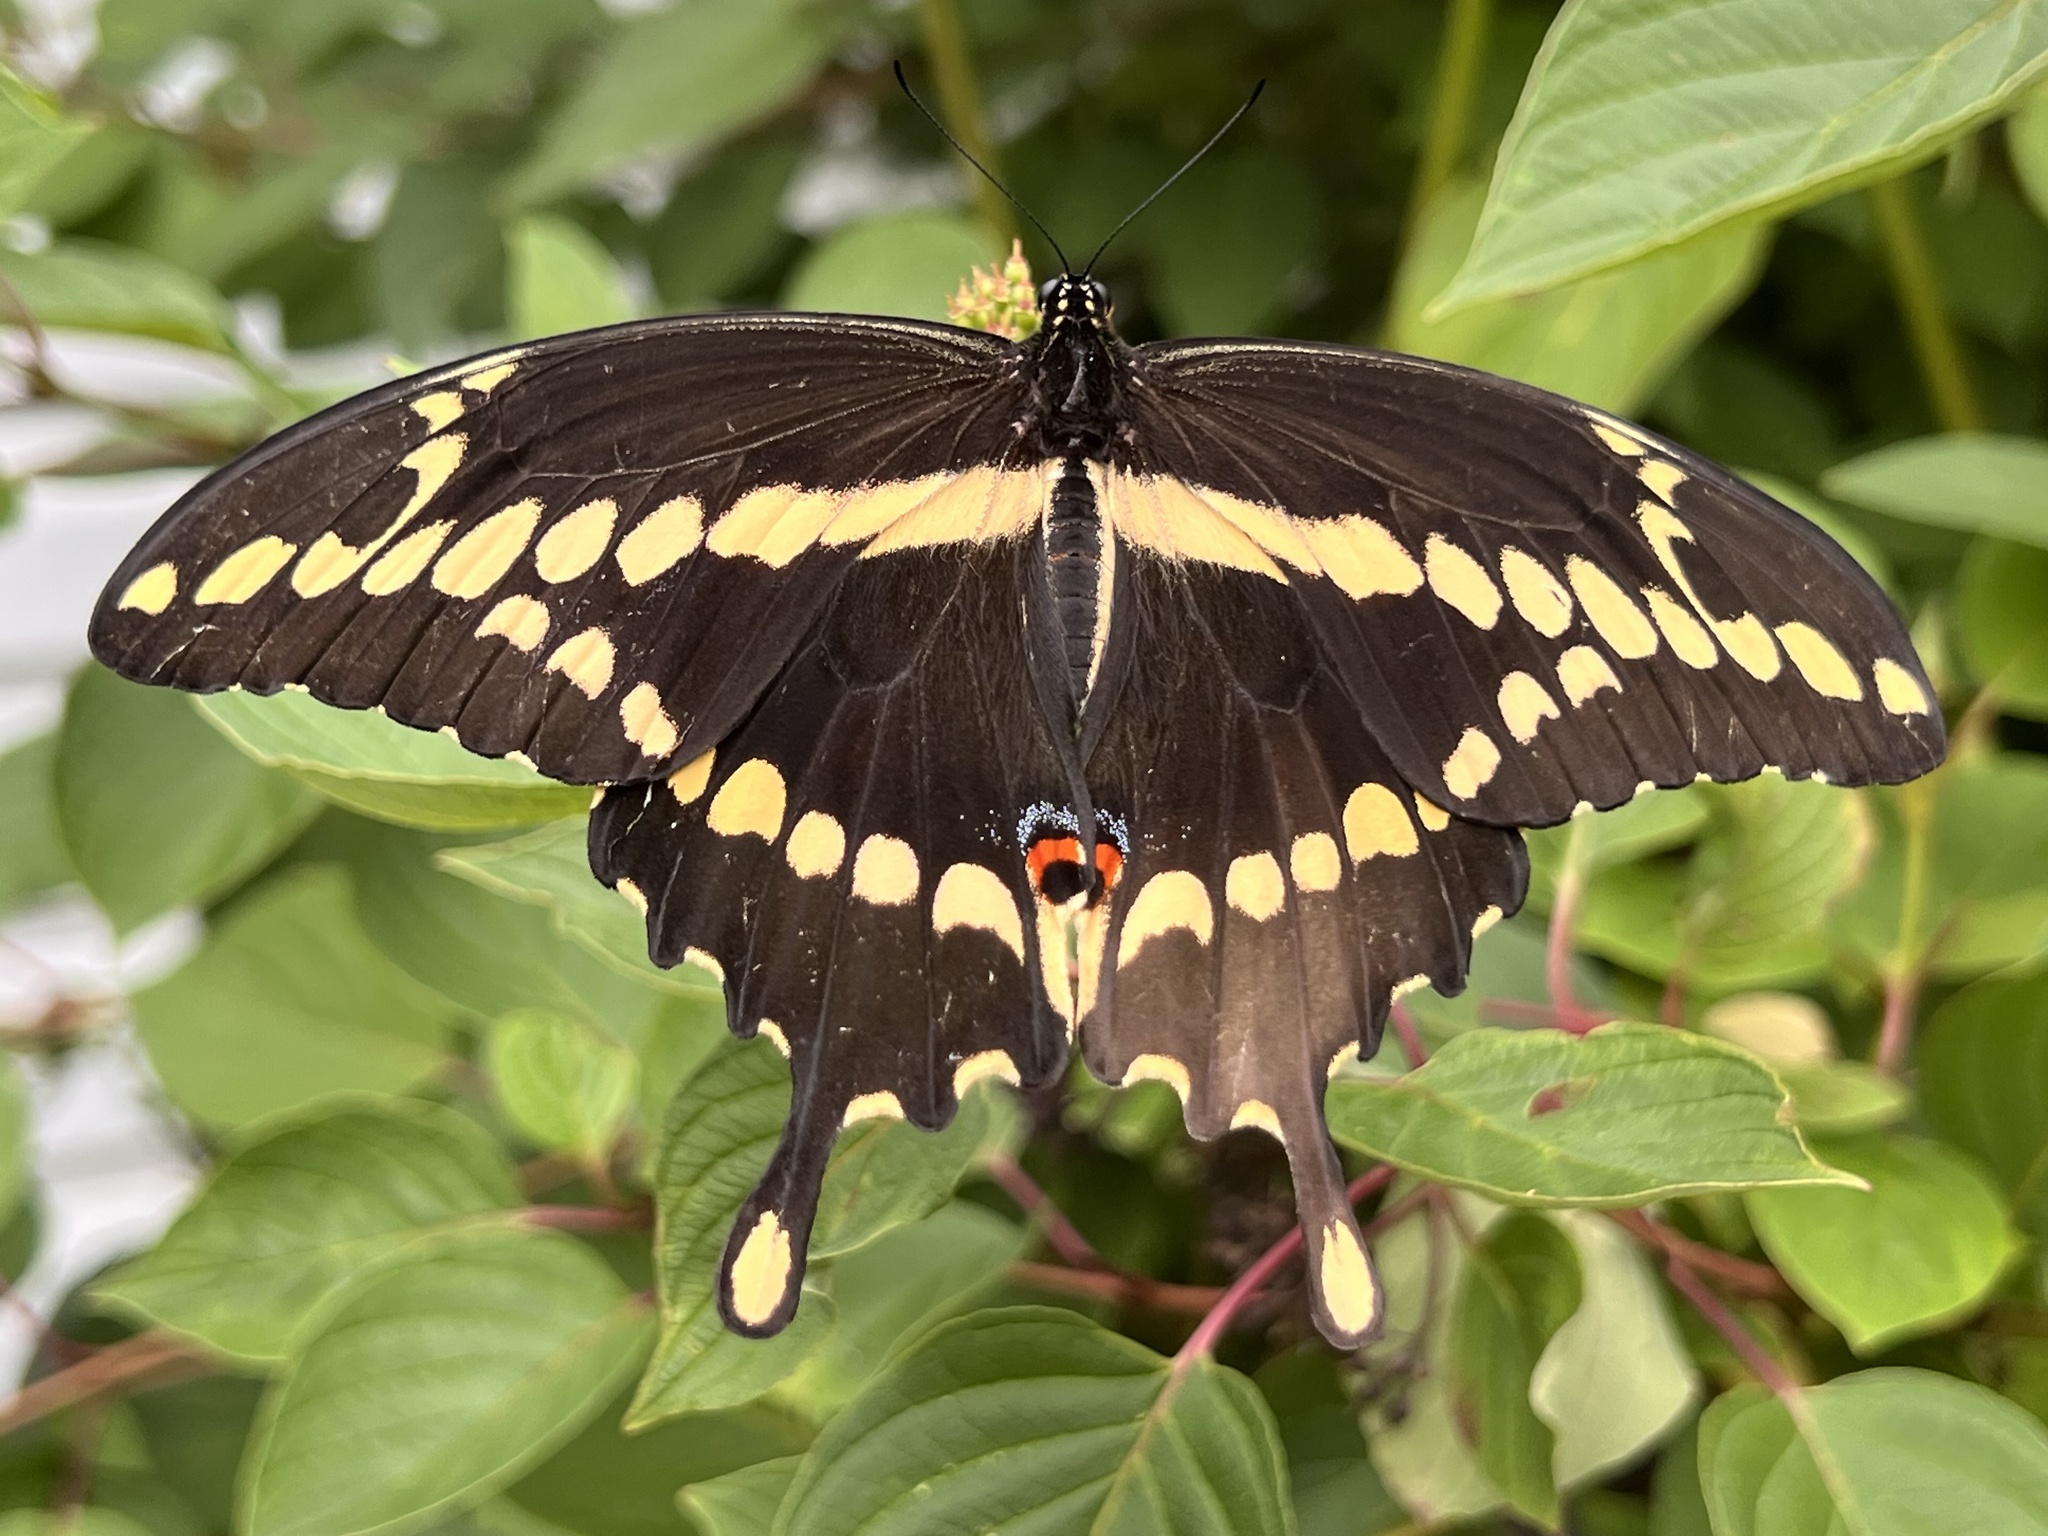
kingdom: Animalia
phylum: Arthropoda
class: Insecta
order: Lepidoptera
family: Papilionidae
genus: Papilio
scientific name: Papilio cresphontes
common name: Giant swallowtail
